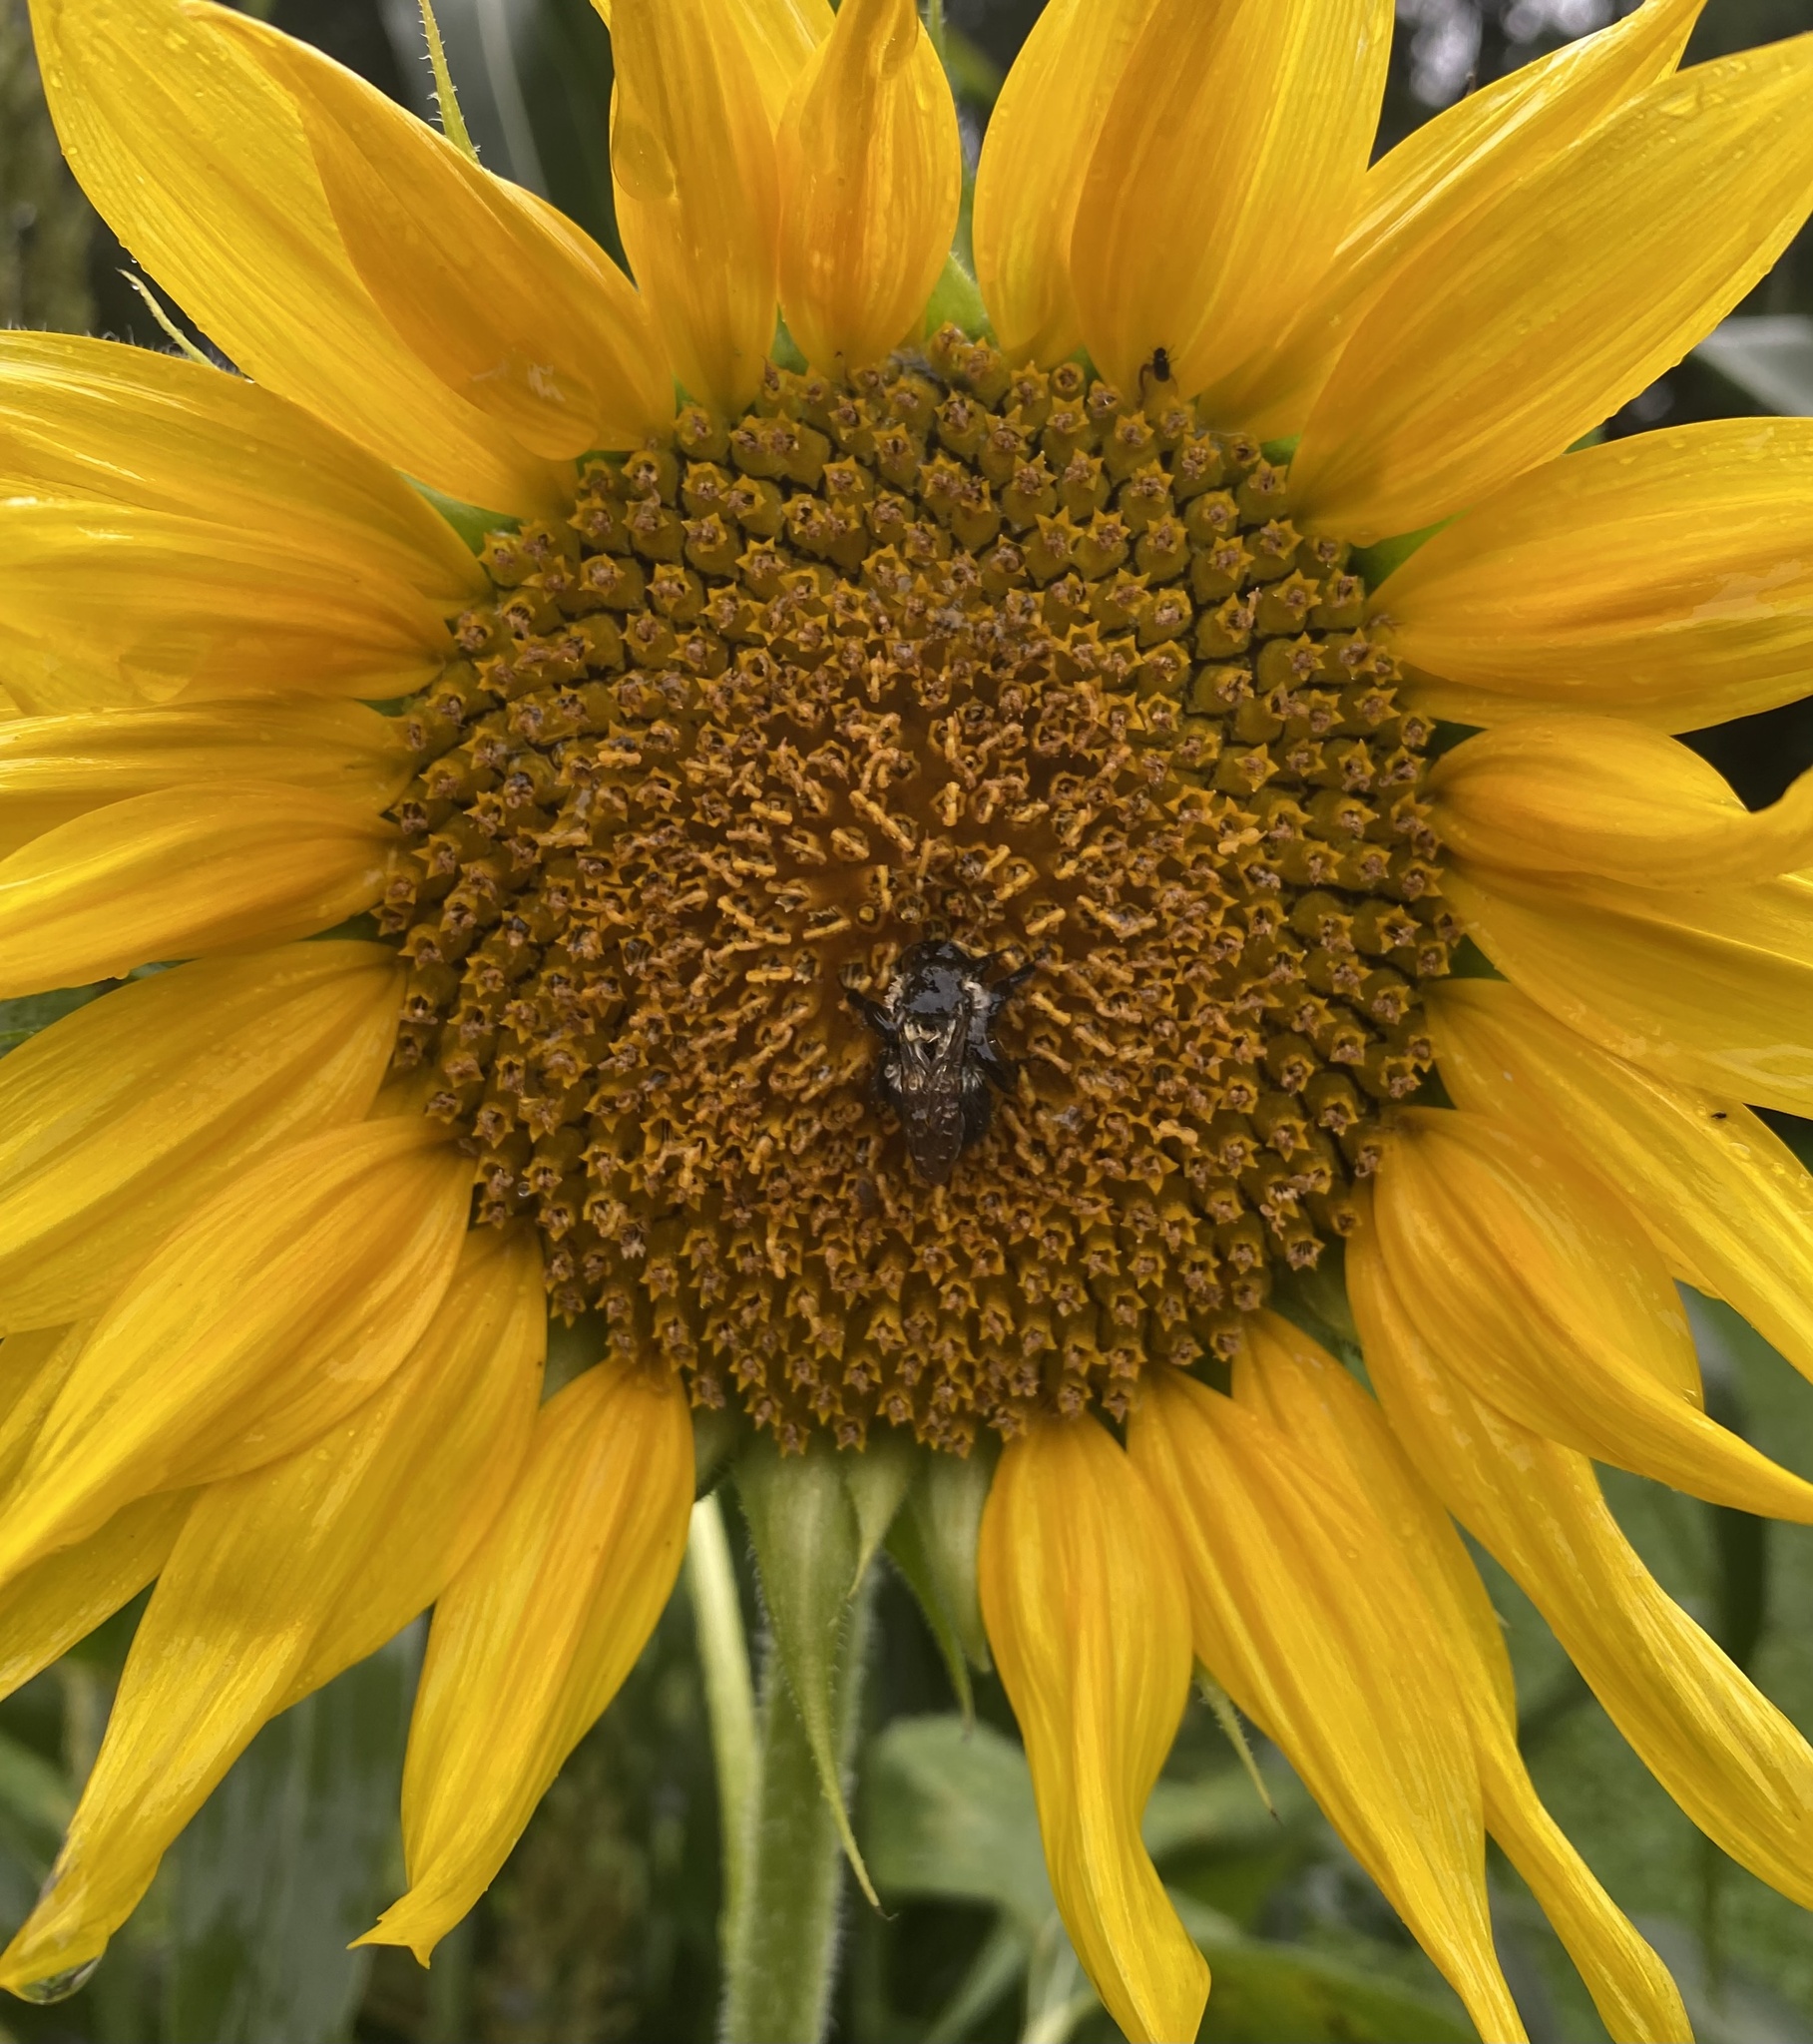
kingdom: Animalia
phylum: Arthropoda
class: Insecta
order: Hymenoptera
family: Apidae
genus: Bombus
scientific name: Bombus impatiens
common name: Common eastern bumble bee
